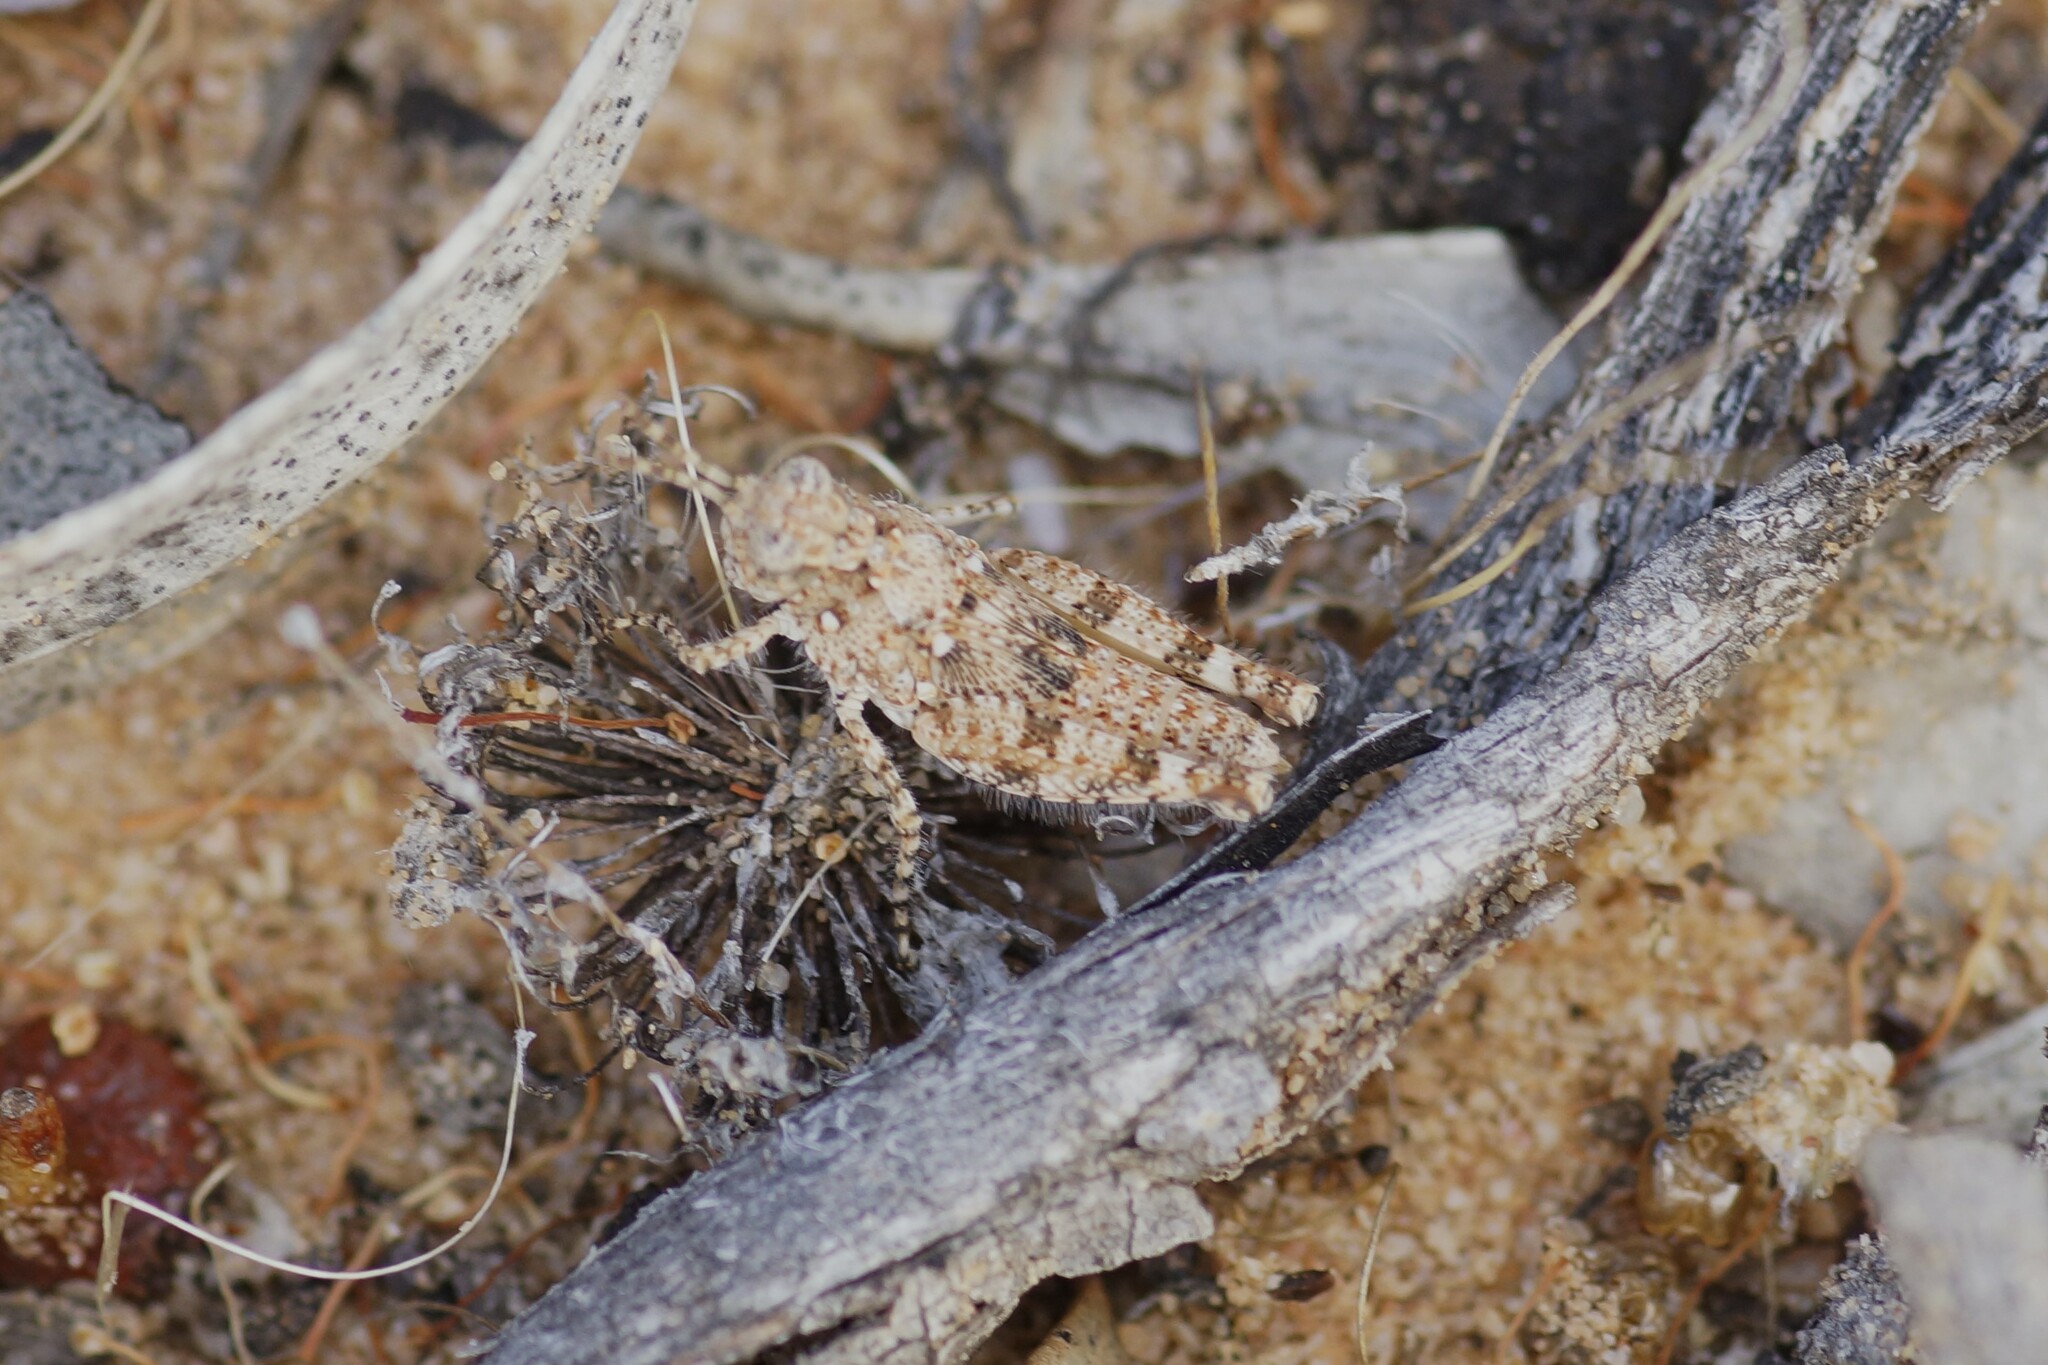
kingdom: Animalia
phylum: Arthropoda
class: Insecta
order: Orthoptera
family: Acrididae
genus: Tapesta
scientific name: Tapesta carneipes
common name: Blue-legged hairy grasshopper
